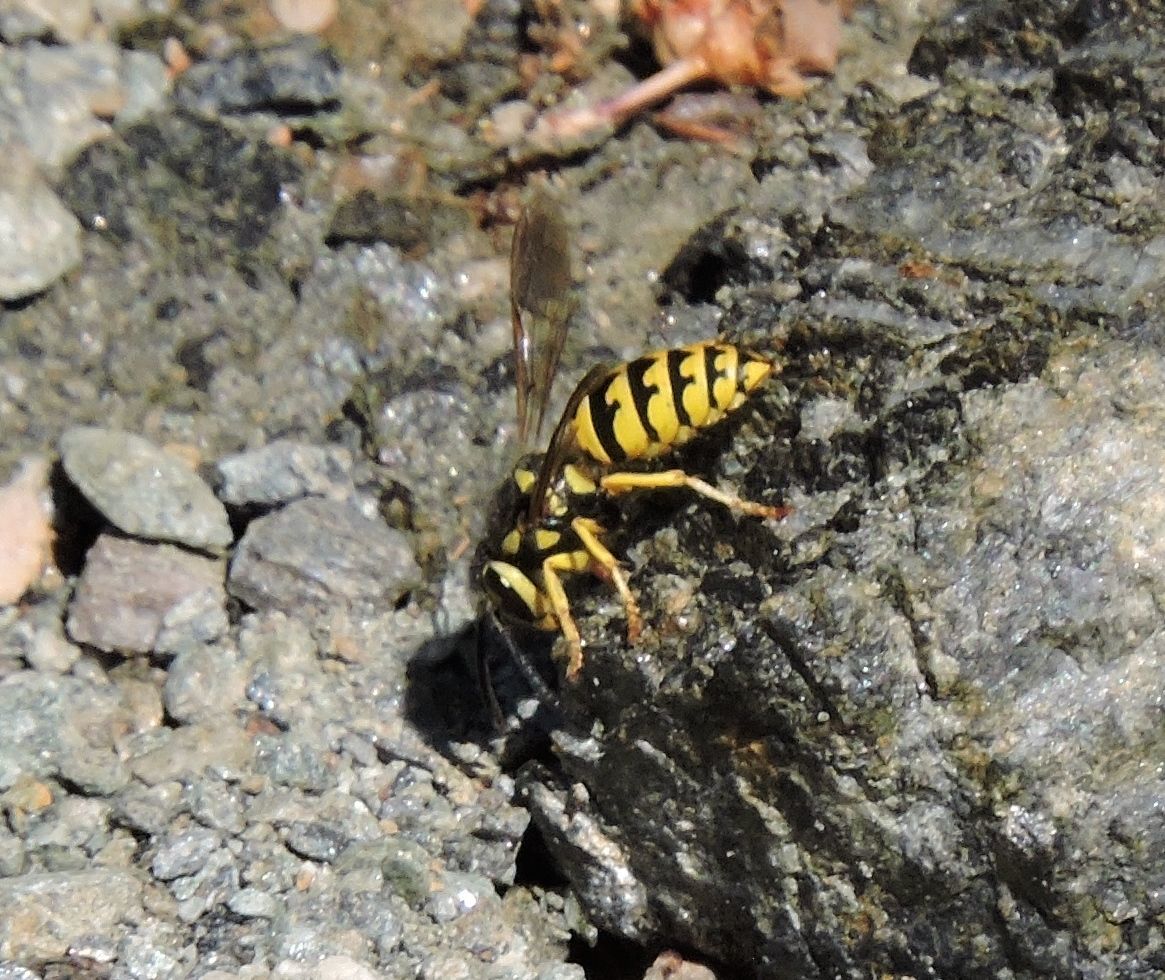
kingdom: Animalia
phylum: Arthropoda
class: Insecta
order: Hymenoptera
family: Vespidae
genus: Vespula
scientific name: Vespula pensylvanica
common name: Western yellowjacket
